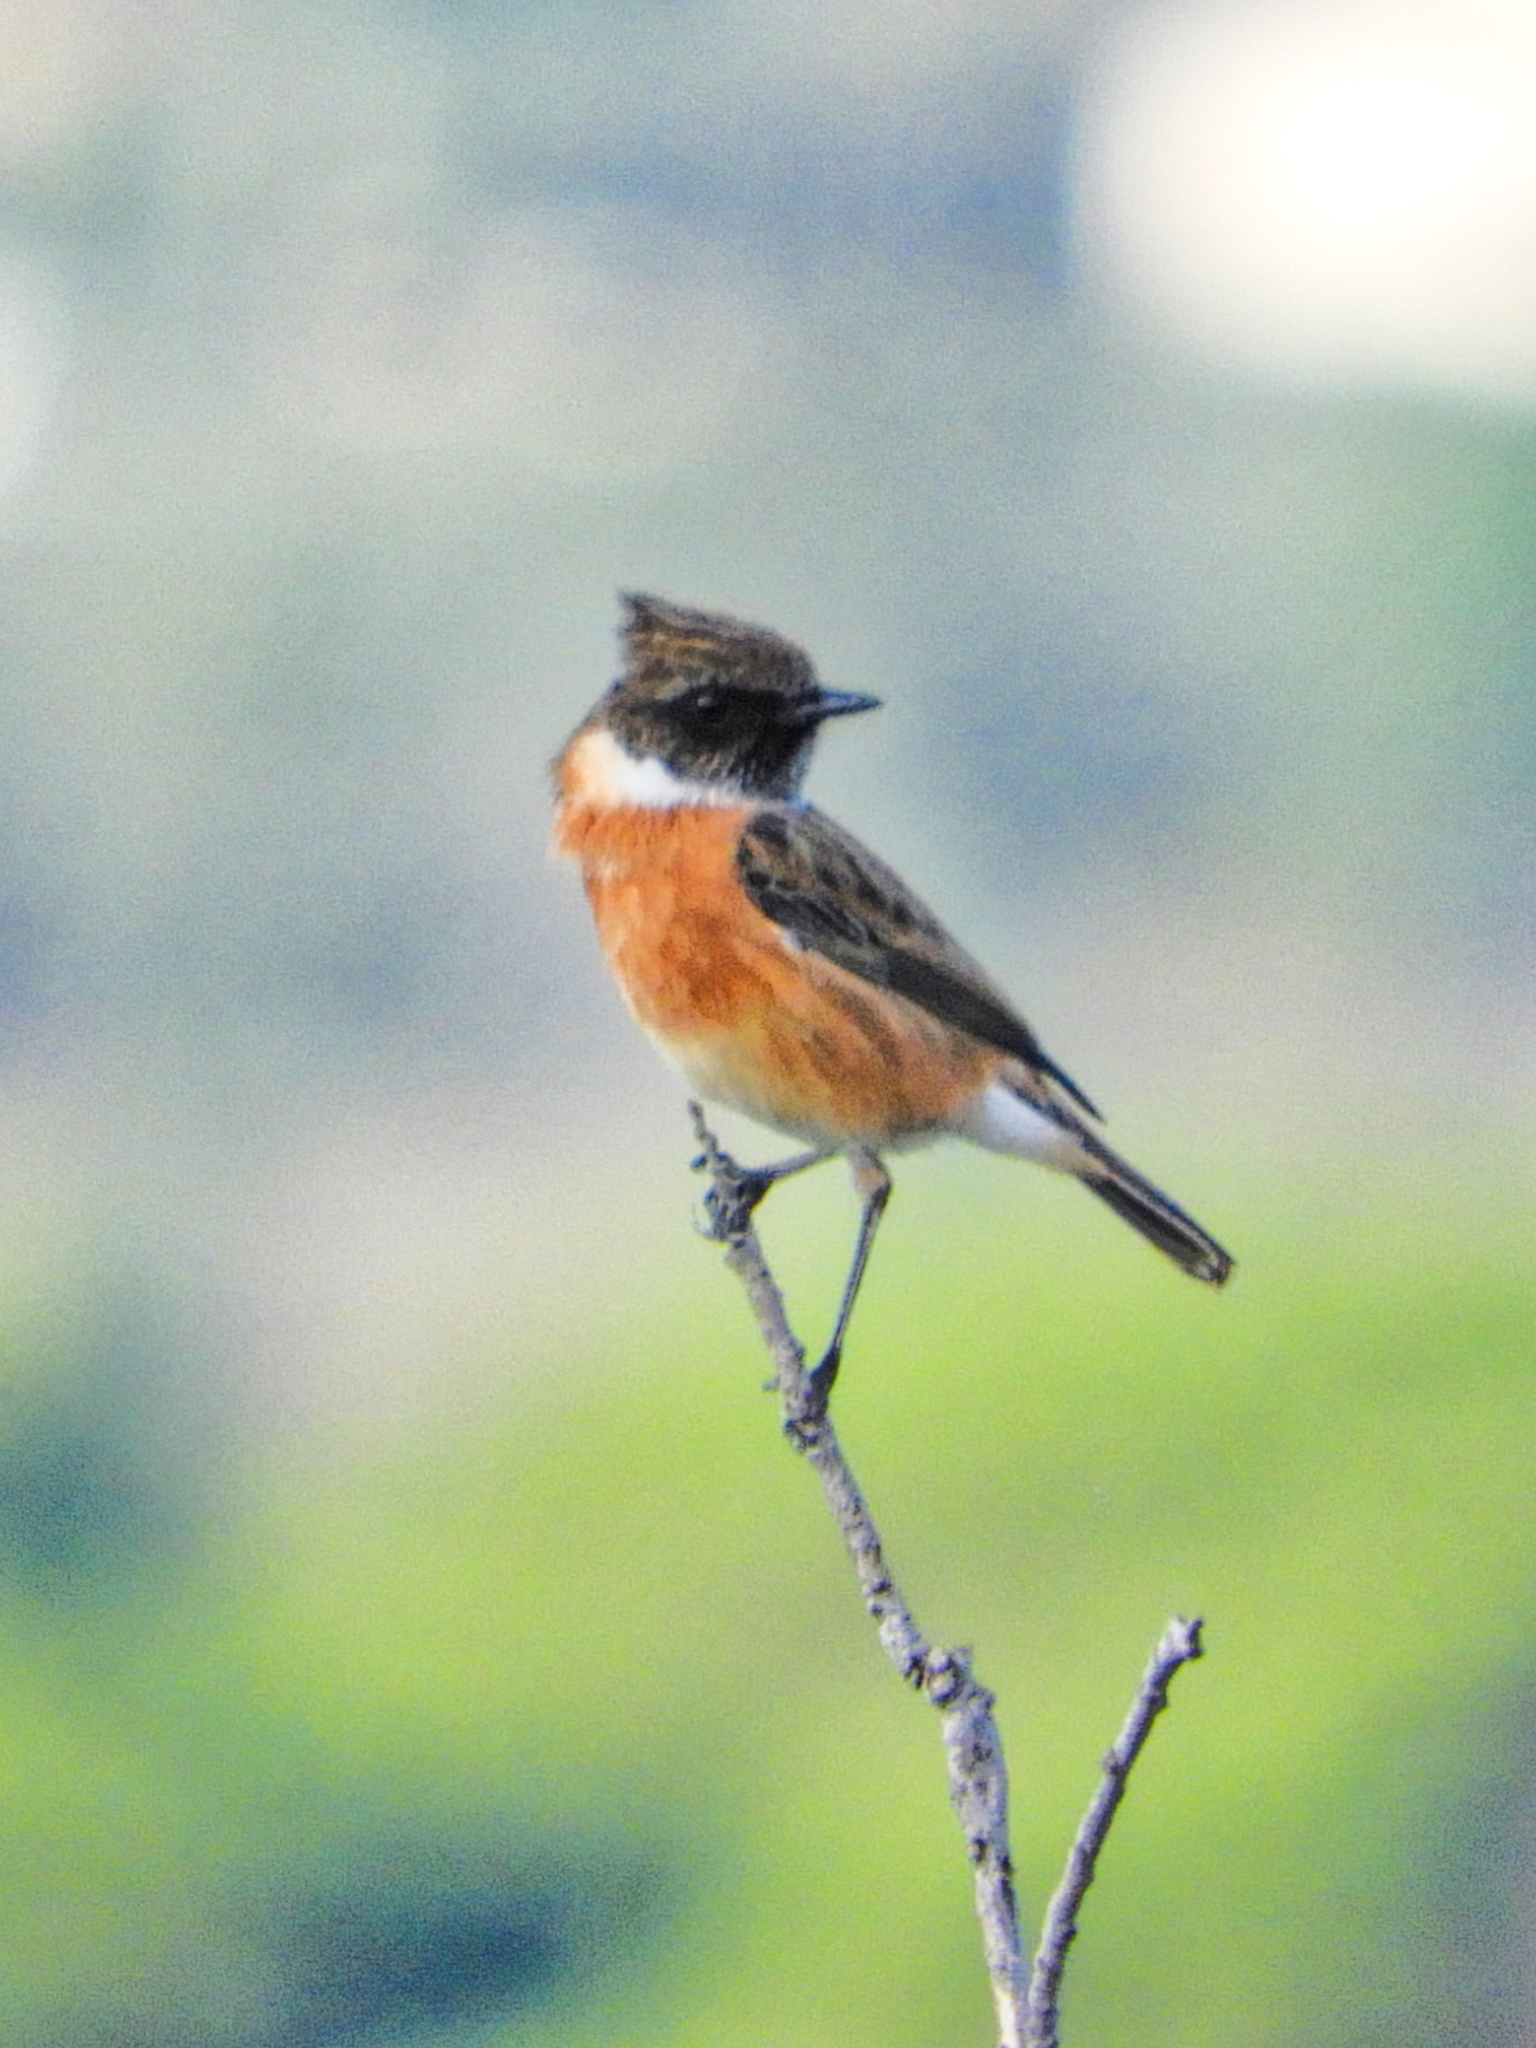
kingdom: Animalia
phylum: Chordata
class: Aves
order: Passeriformes
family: Muscicapidae
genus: Saxicola
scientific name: Saxicola rubicola
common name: European stonechat
